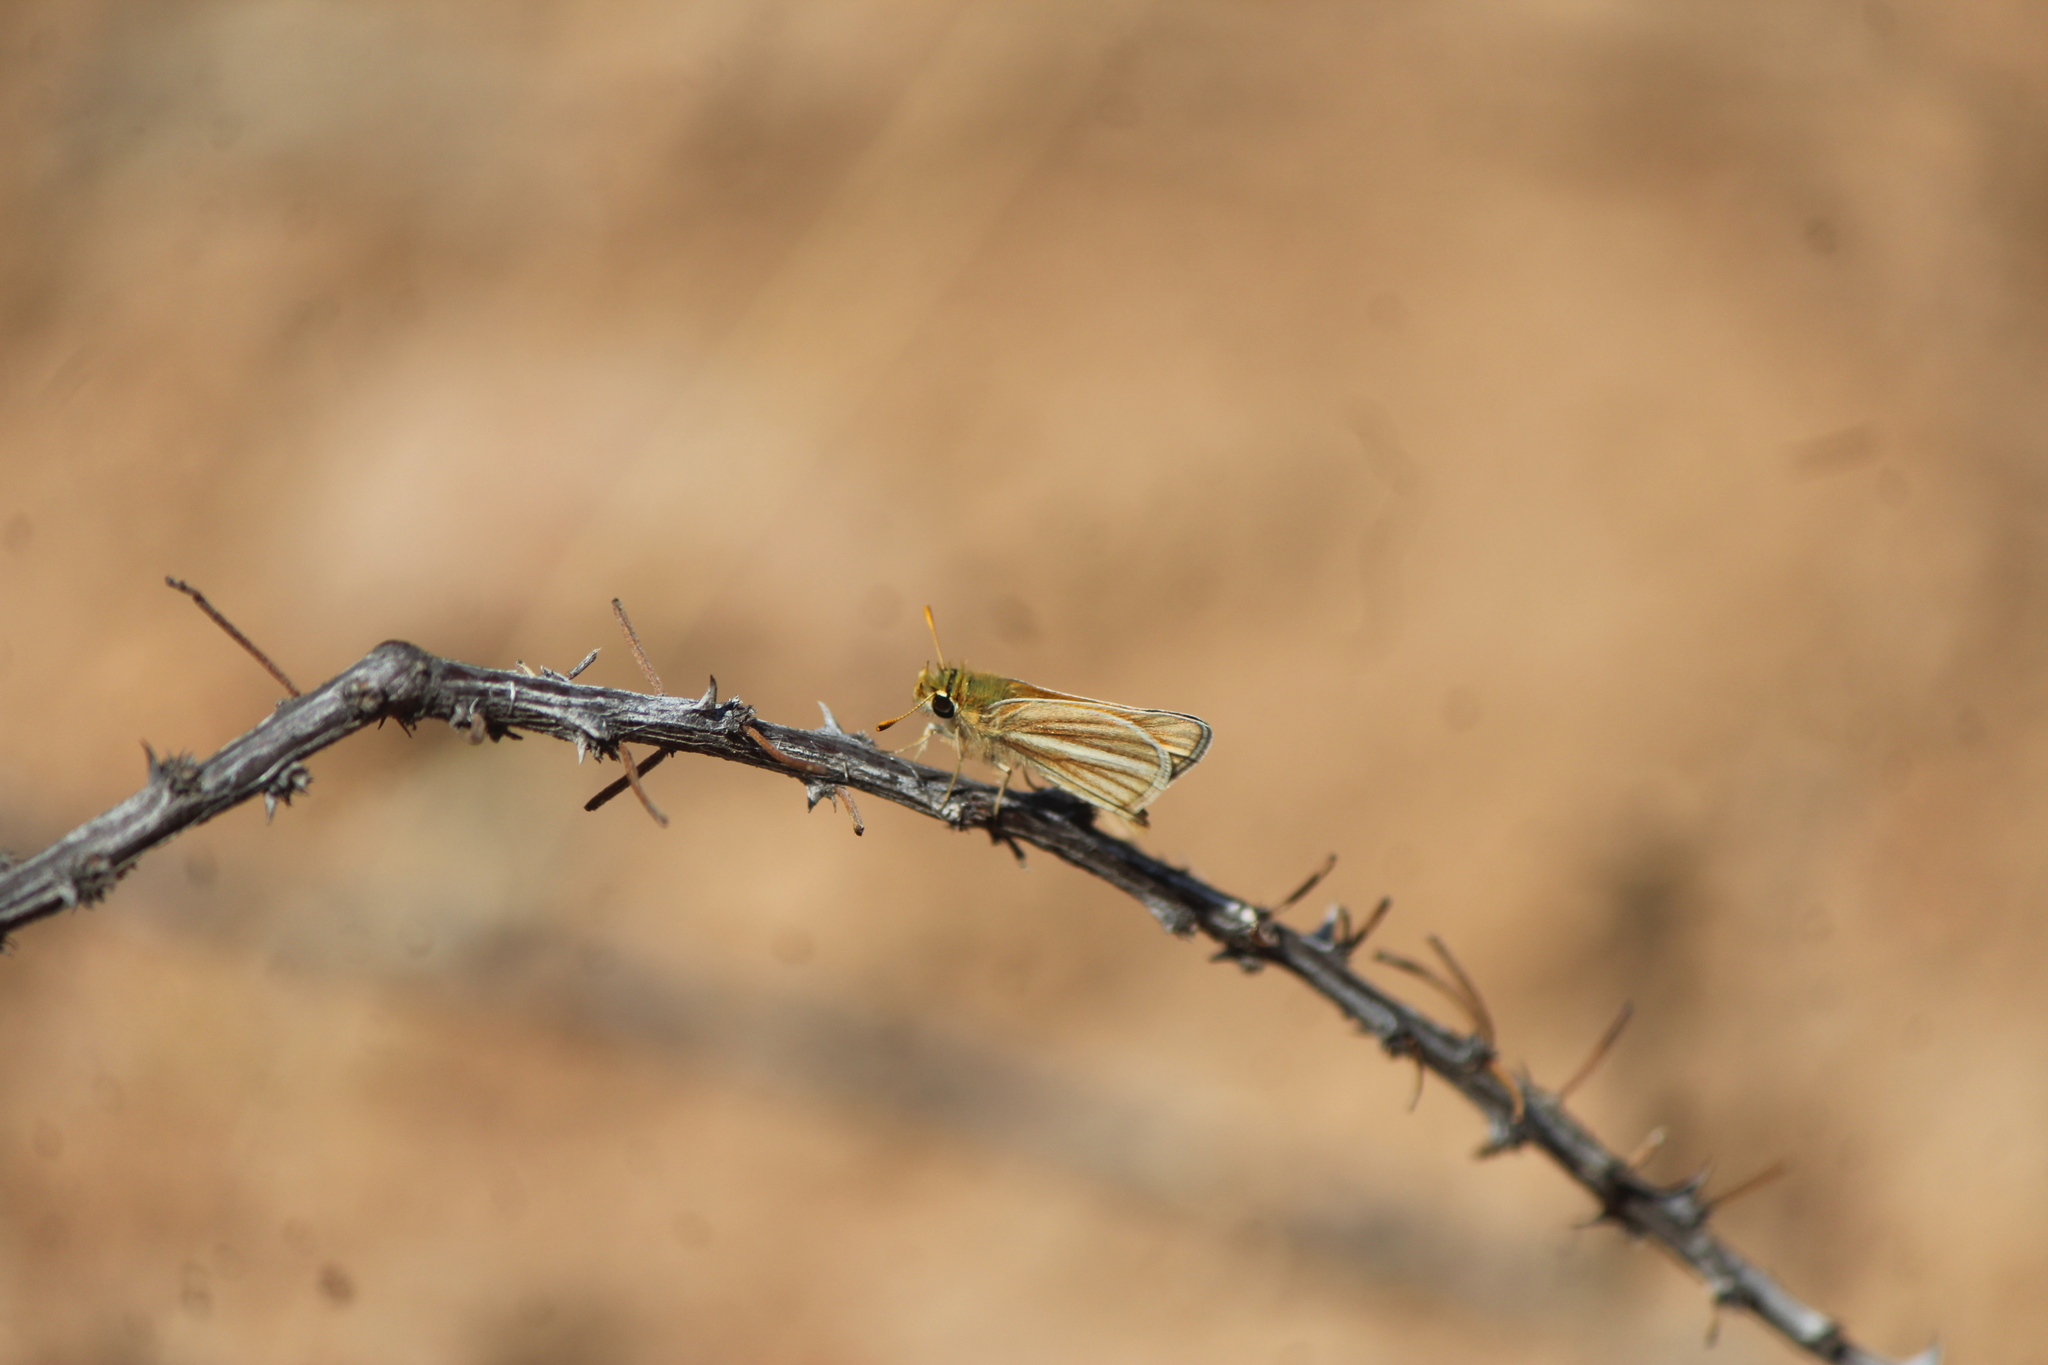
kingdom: Animalia
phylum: Arthropoda
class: Insecta
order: Lepidoptera
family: Hesperiidae
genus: Copaeodes
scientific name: Copaeodes minima
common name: Southern skipperling
